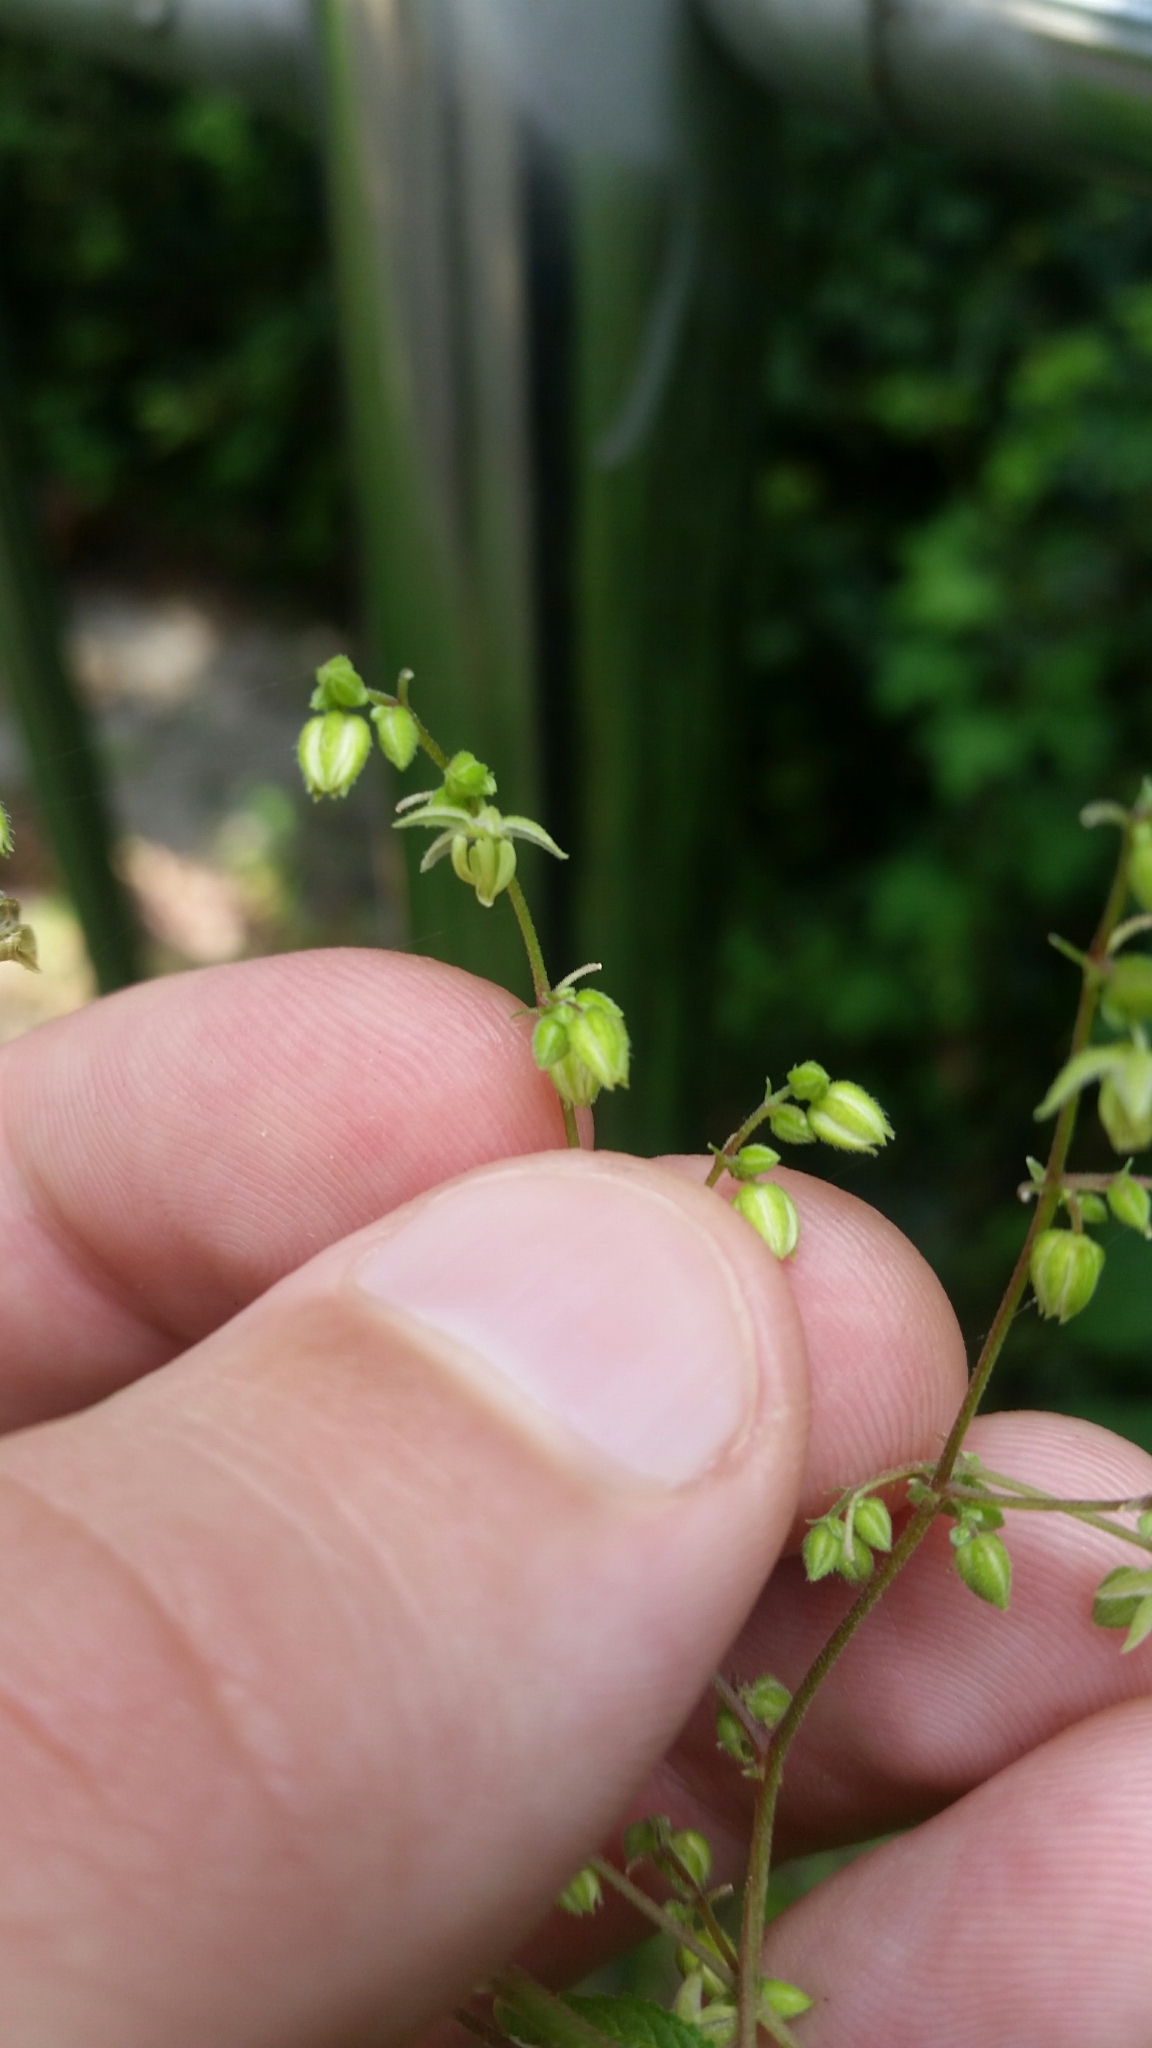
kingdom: Plantae
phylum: Tracheophyta
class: Magnoliopsida
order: Rosales
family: Cannabaceae
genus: Humulus
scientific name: Humulus scandens
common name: Japanese hop
